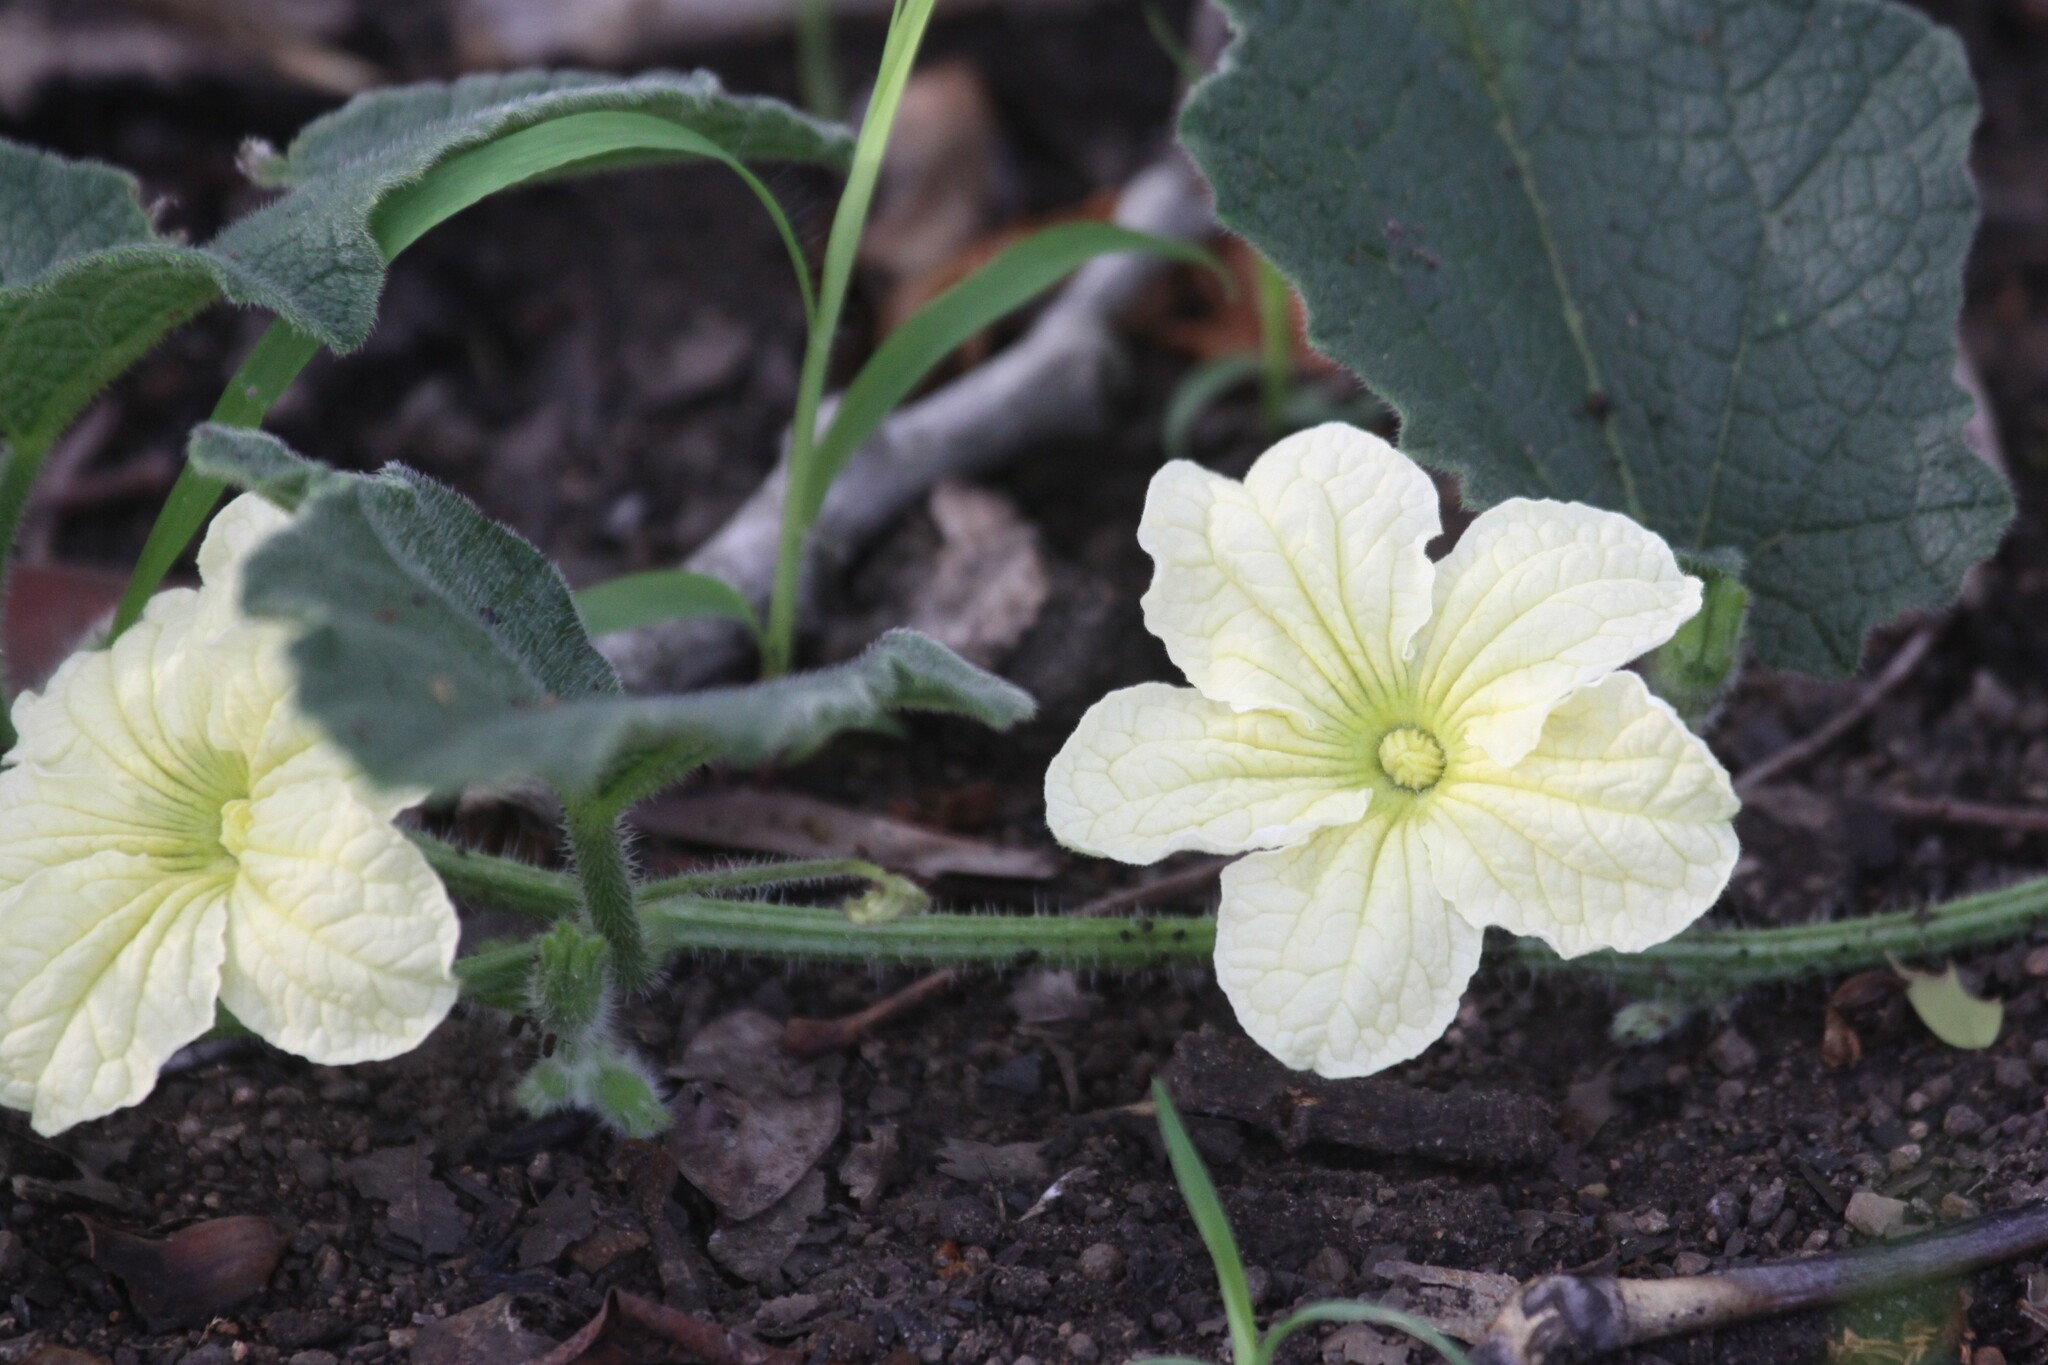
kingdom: Plantae
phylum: Tracheophyta
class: Magnoliopsida
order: Cucurbitales
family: Cucurbitaceae
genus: Cucumis
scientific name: Cucumis hirsutus
